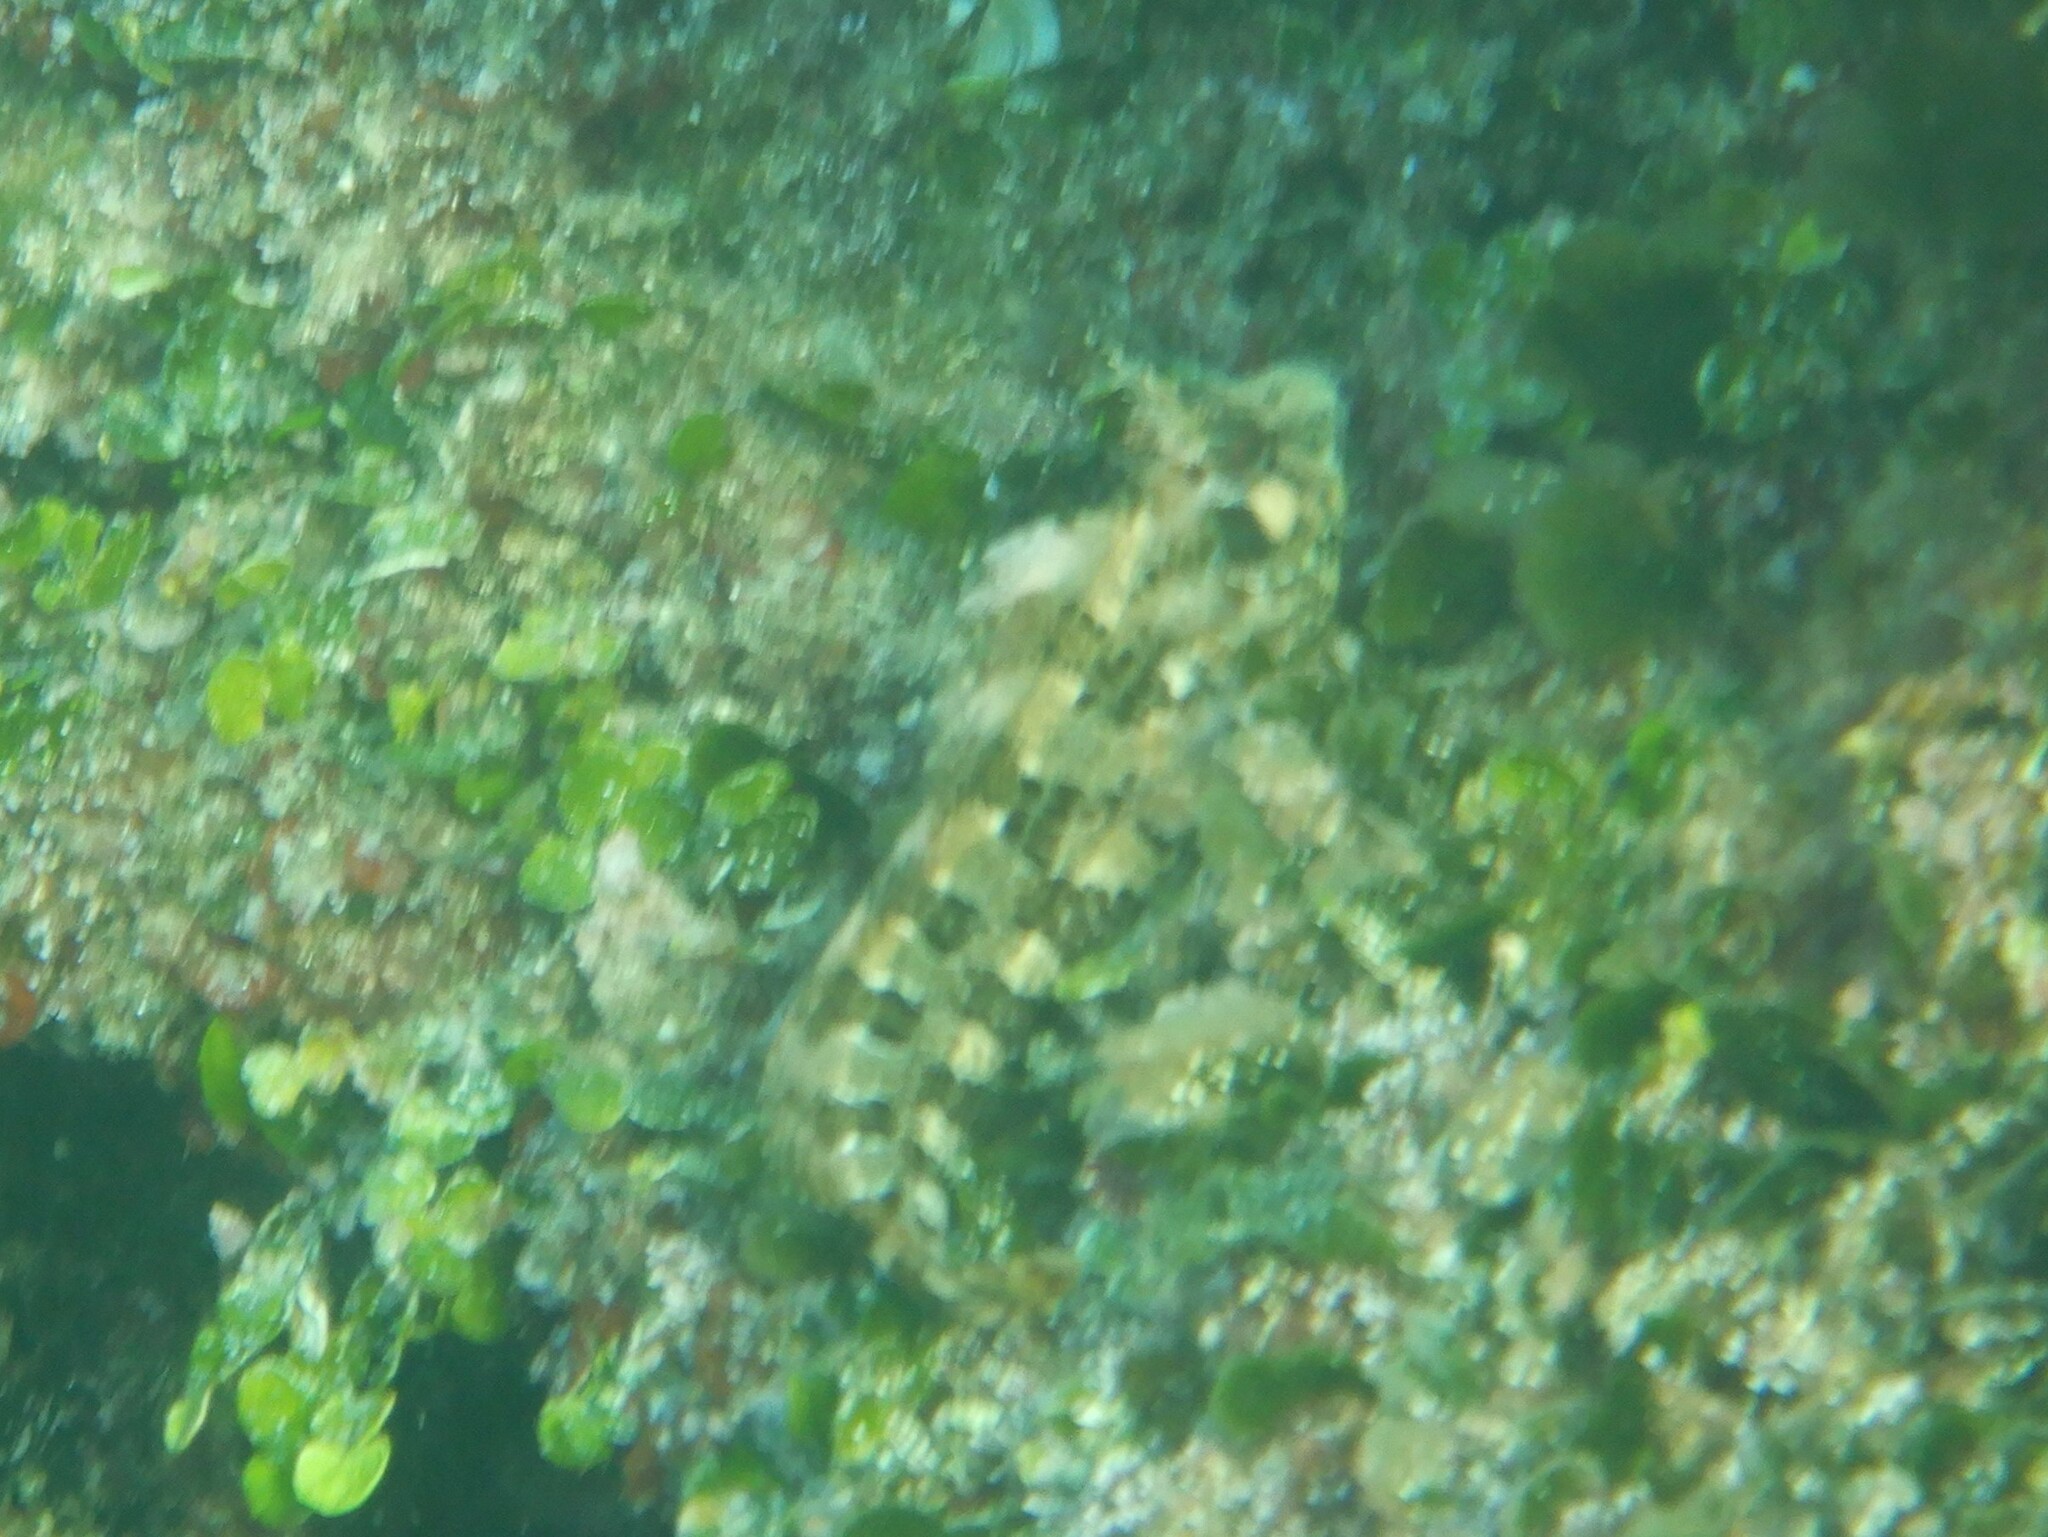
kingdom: Animalia
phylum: Chordata
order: Perciformes
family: Blenniidae
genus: Parablennius
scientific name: Parablennius gattorugine
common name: Tompot blenny
